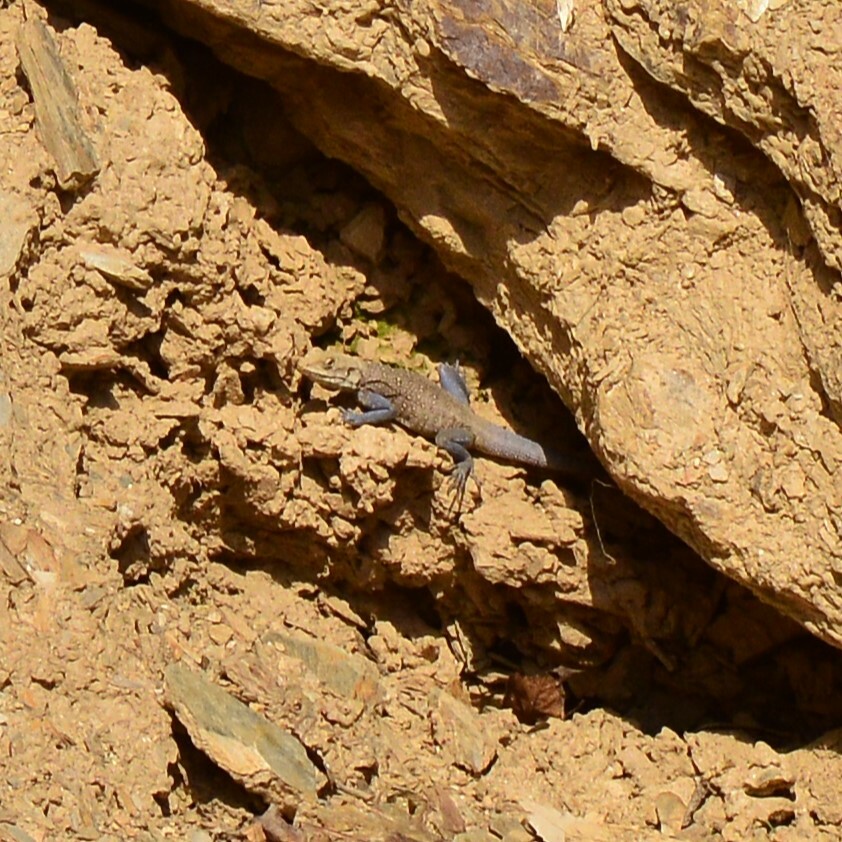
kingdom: Animalia
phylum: Chordata
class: Squamata
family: Agamidae
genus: Laudakia
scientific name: Laudakia tuberculata
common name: Kashmir rock agama
